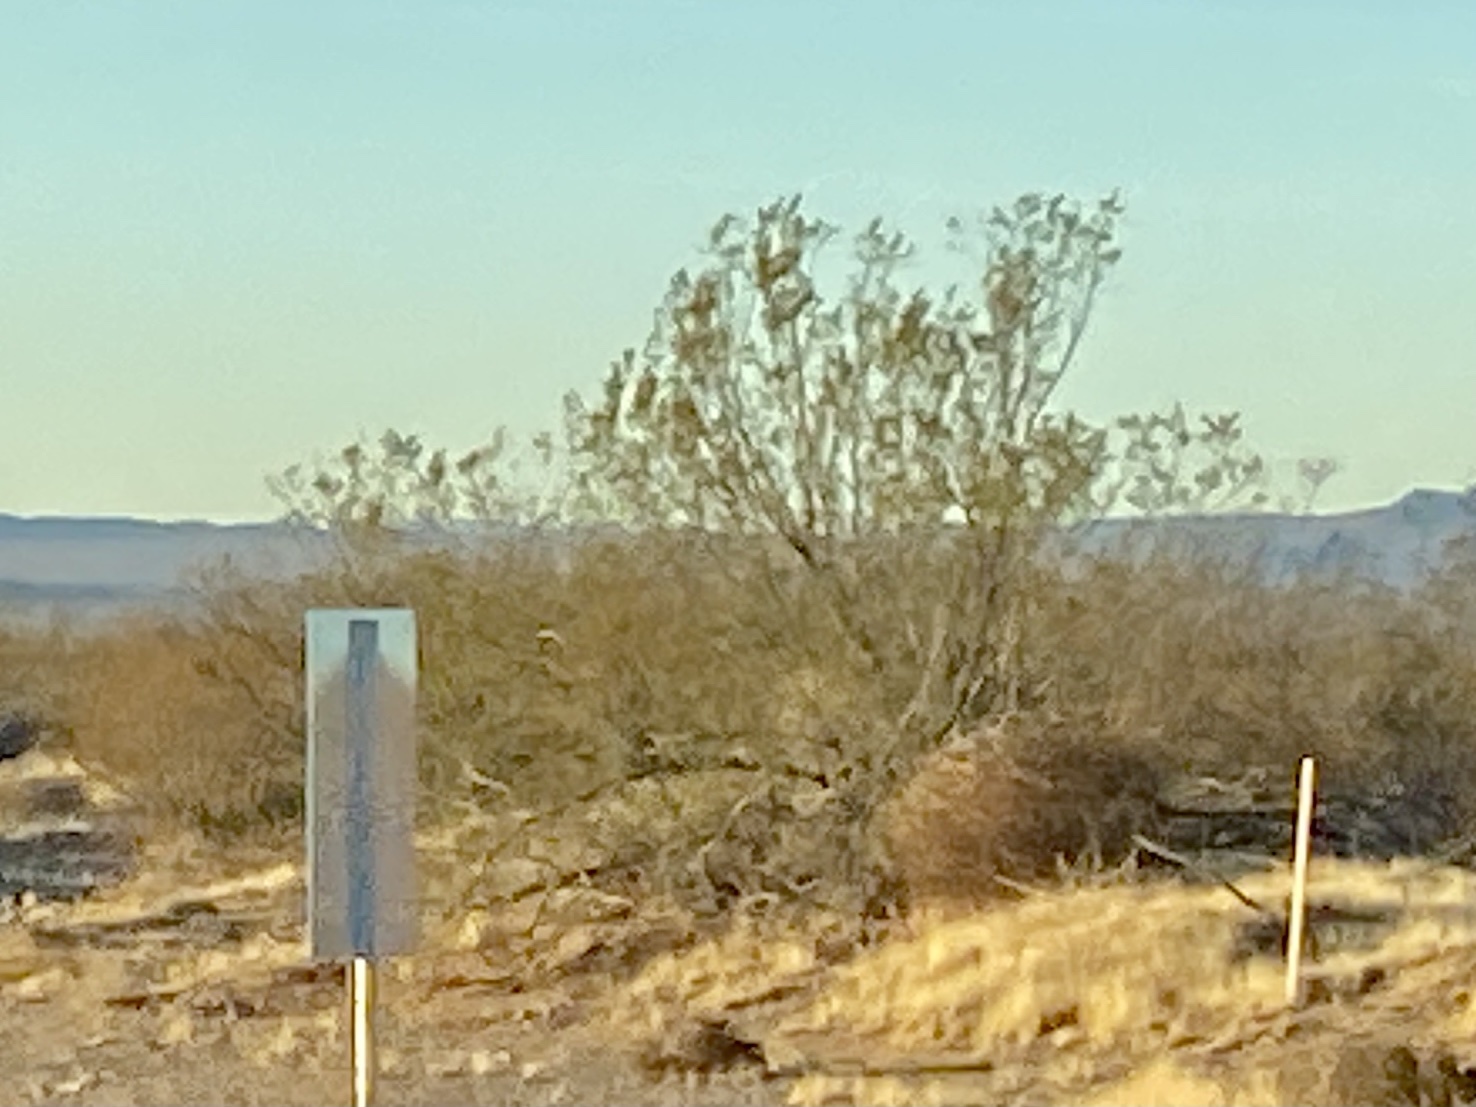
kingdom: Plantae
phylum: Tracheophyta
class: Magnoliopsida
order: Zygophyllales
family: Zygophyllaceae
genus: Larrea
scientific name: Larrea tridentata
